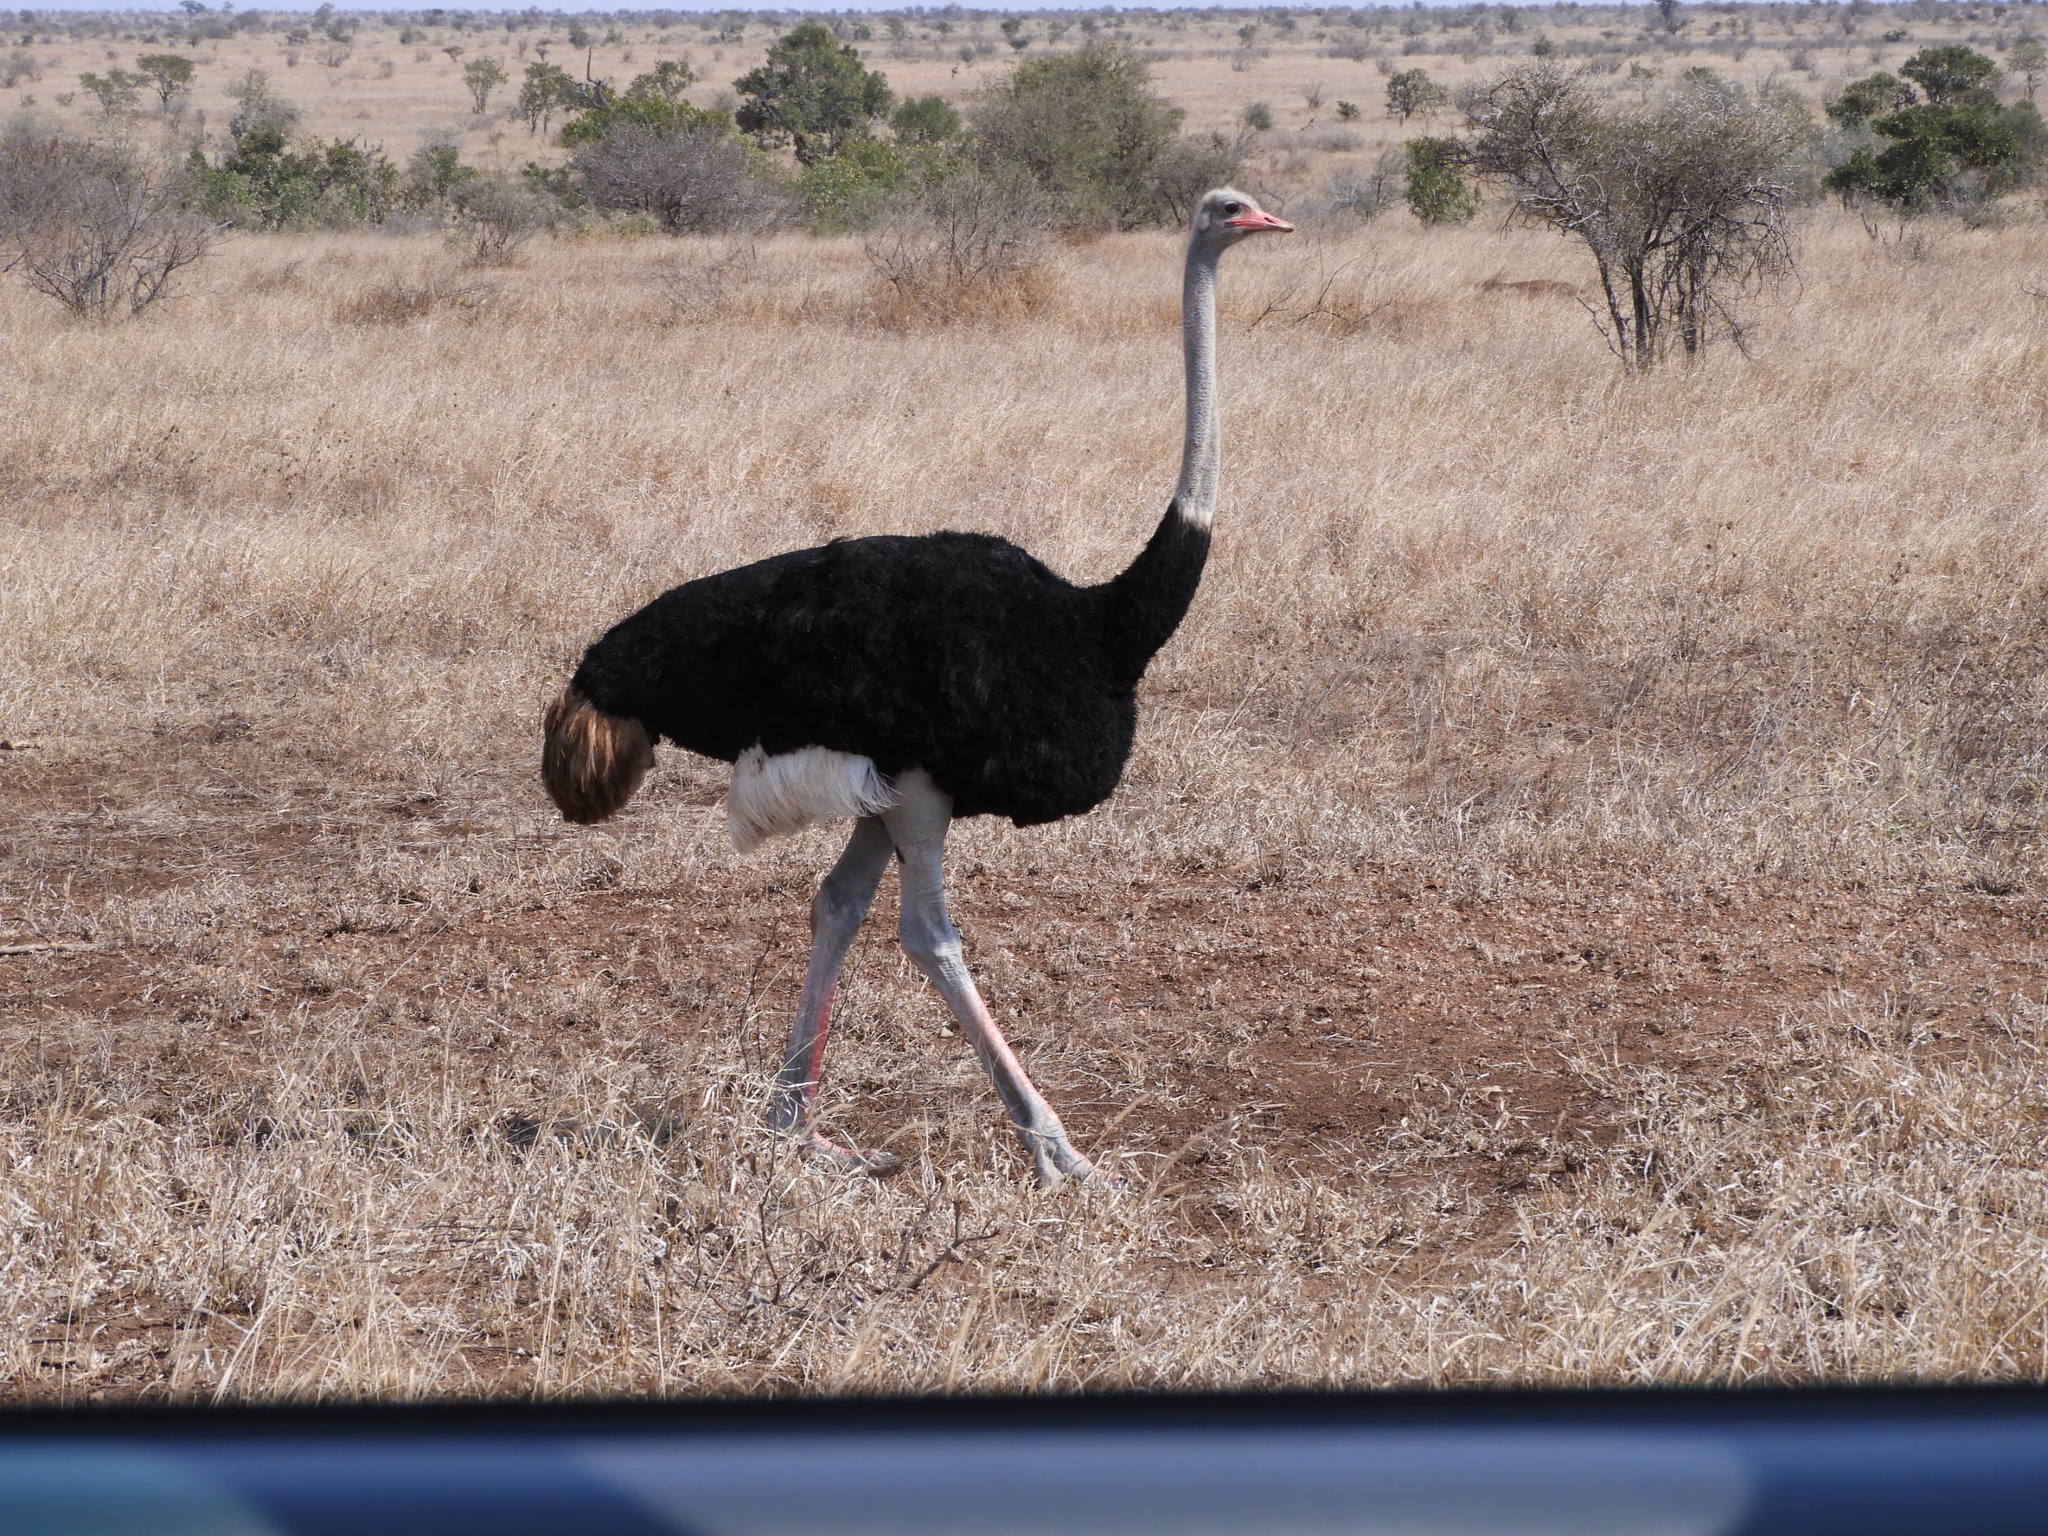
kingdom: Animalia
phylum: Chordata
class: Aves
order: Struthioniformes
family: Struthionidae
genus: Struthio
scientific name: Struthio camelus
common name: Common ostrich
